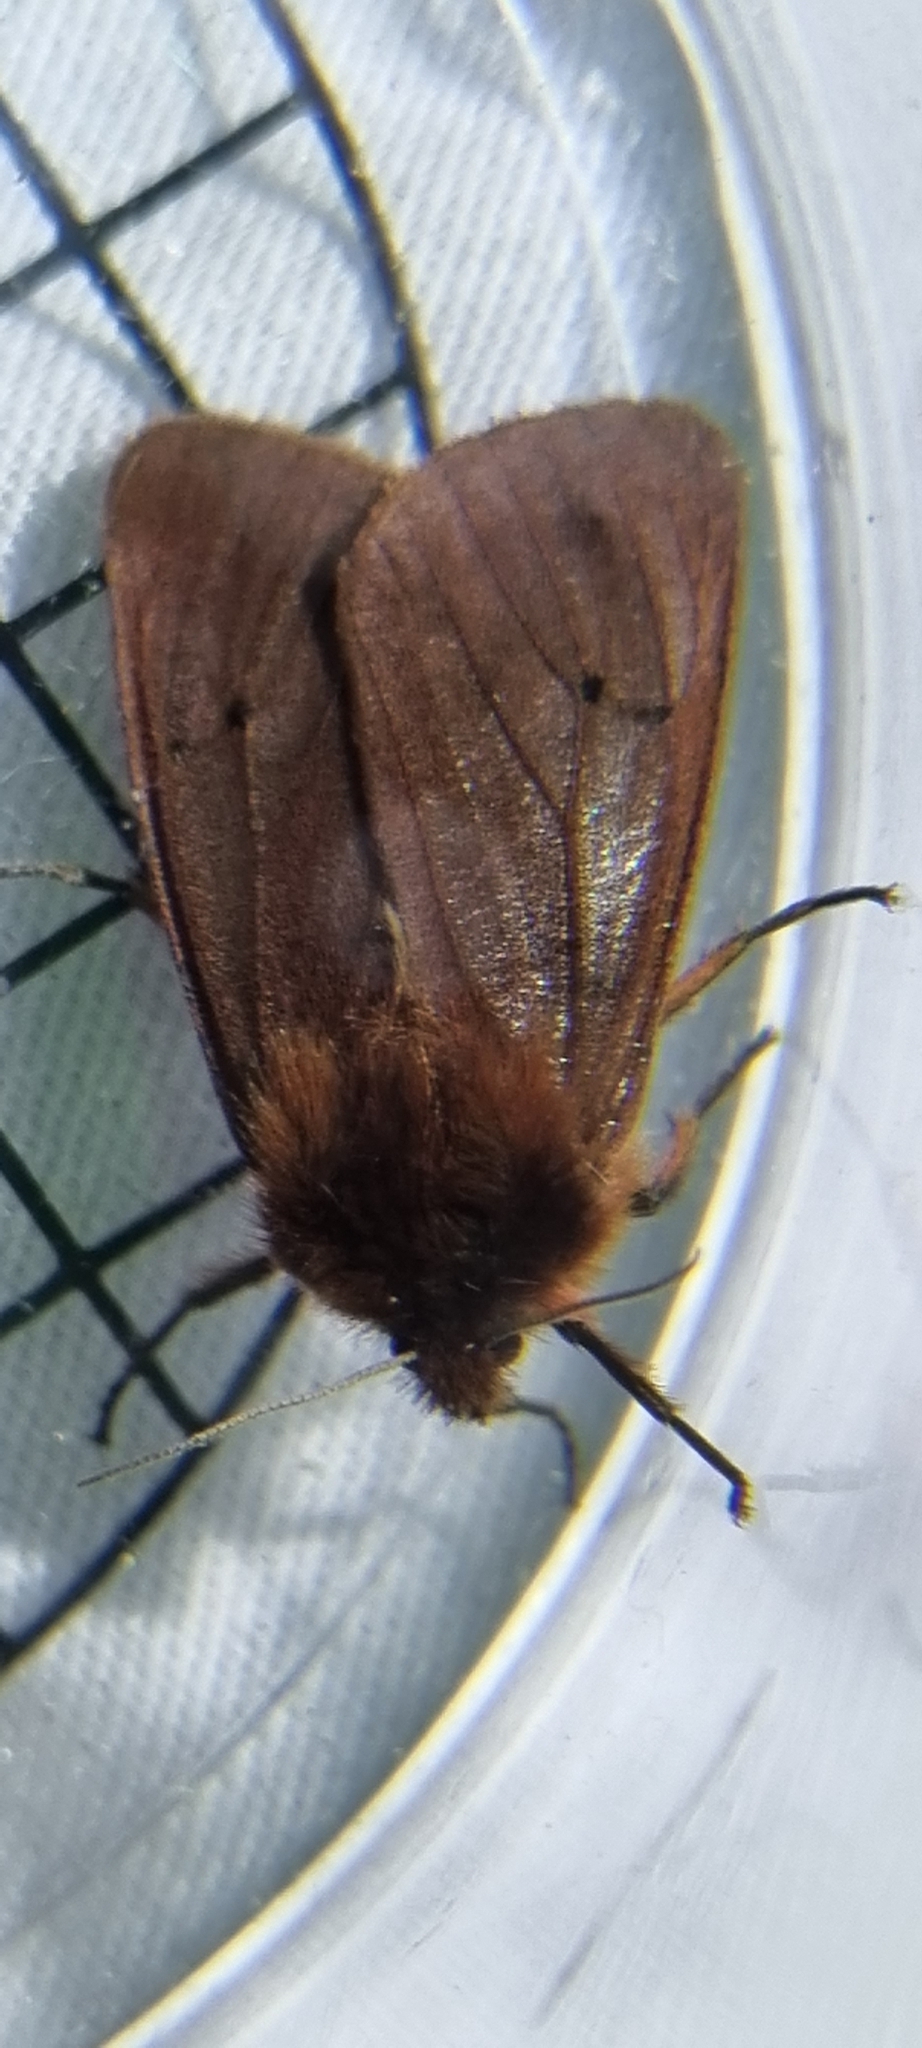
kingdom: Animalia
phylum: Arthropoda
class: Insecta
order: Lepidoptera
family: Erebidae
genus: Phragmatobia
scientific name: Phragmatobia fuliginosa
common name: Ruby tiger
